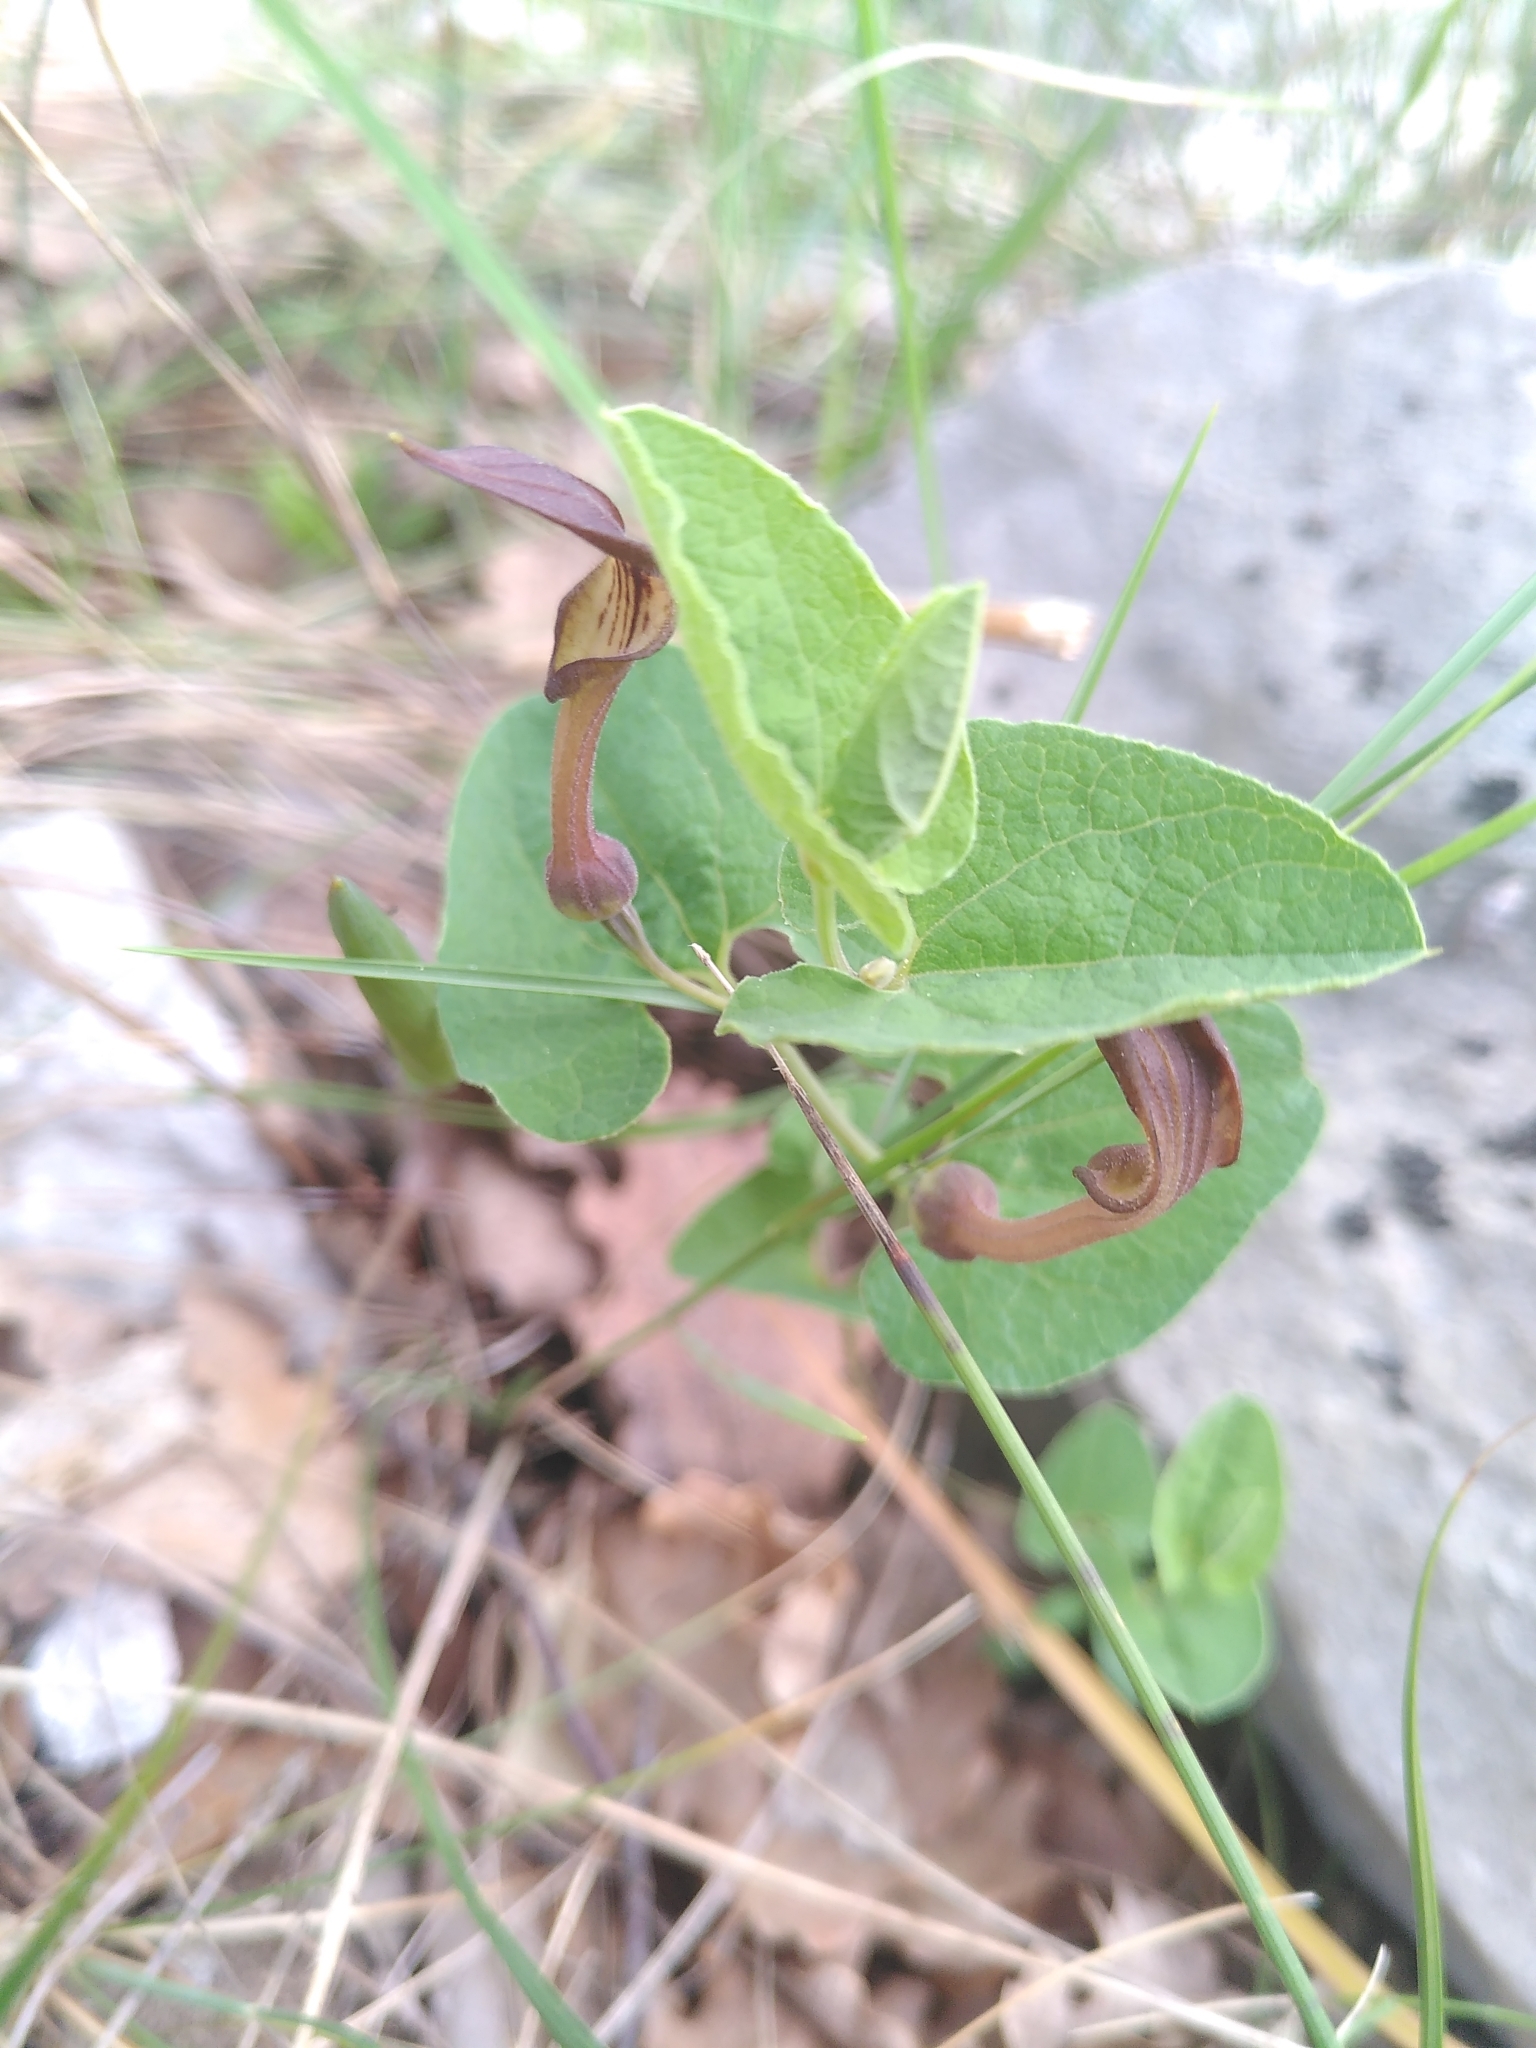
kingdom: Plantae
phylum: Tracheophyta
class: Magnoliopsida
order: Piperales
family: Aristolochiaceae
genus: Aristolochia
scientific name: Aristolochia pistolochia
